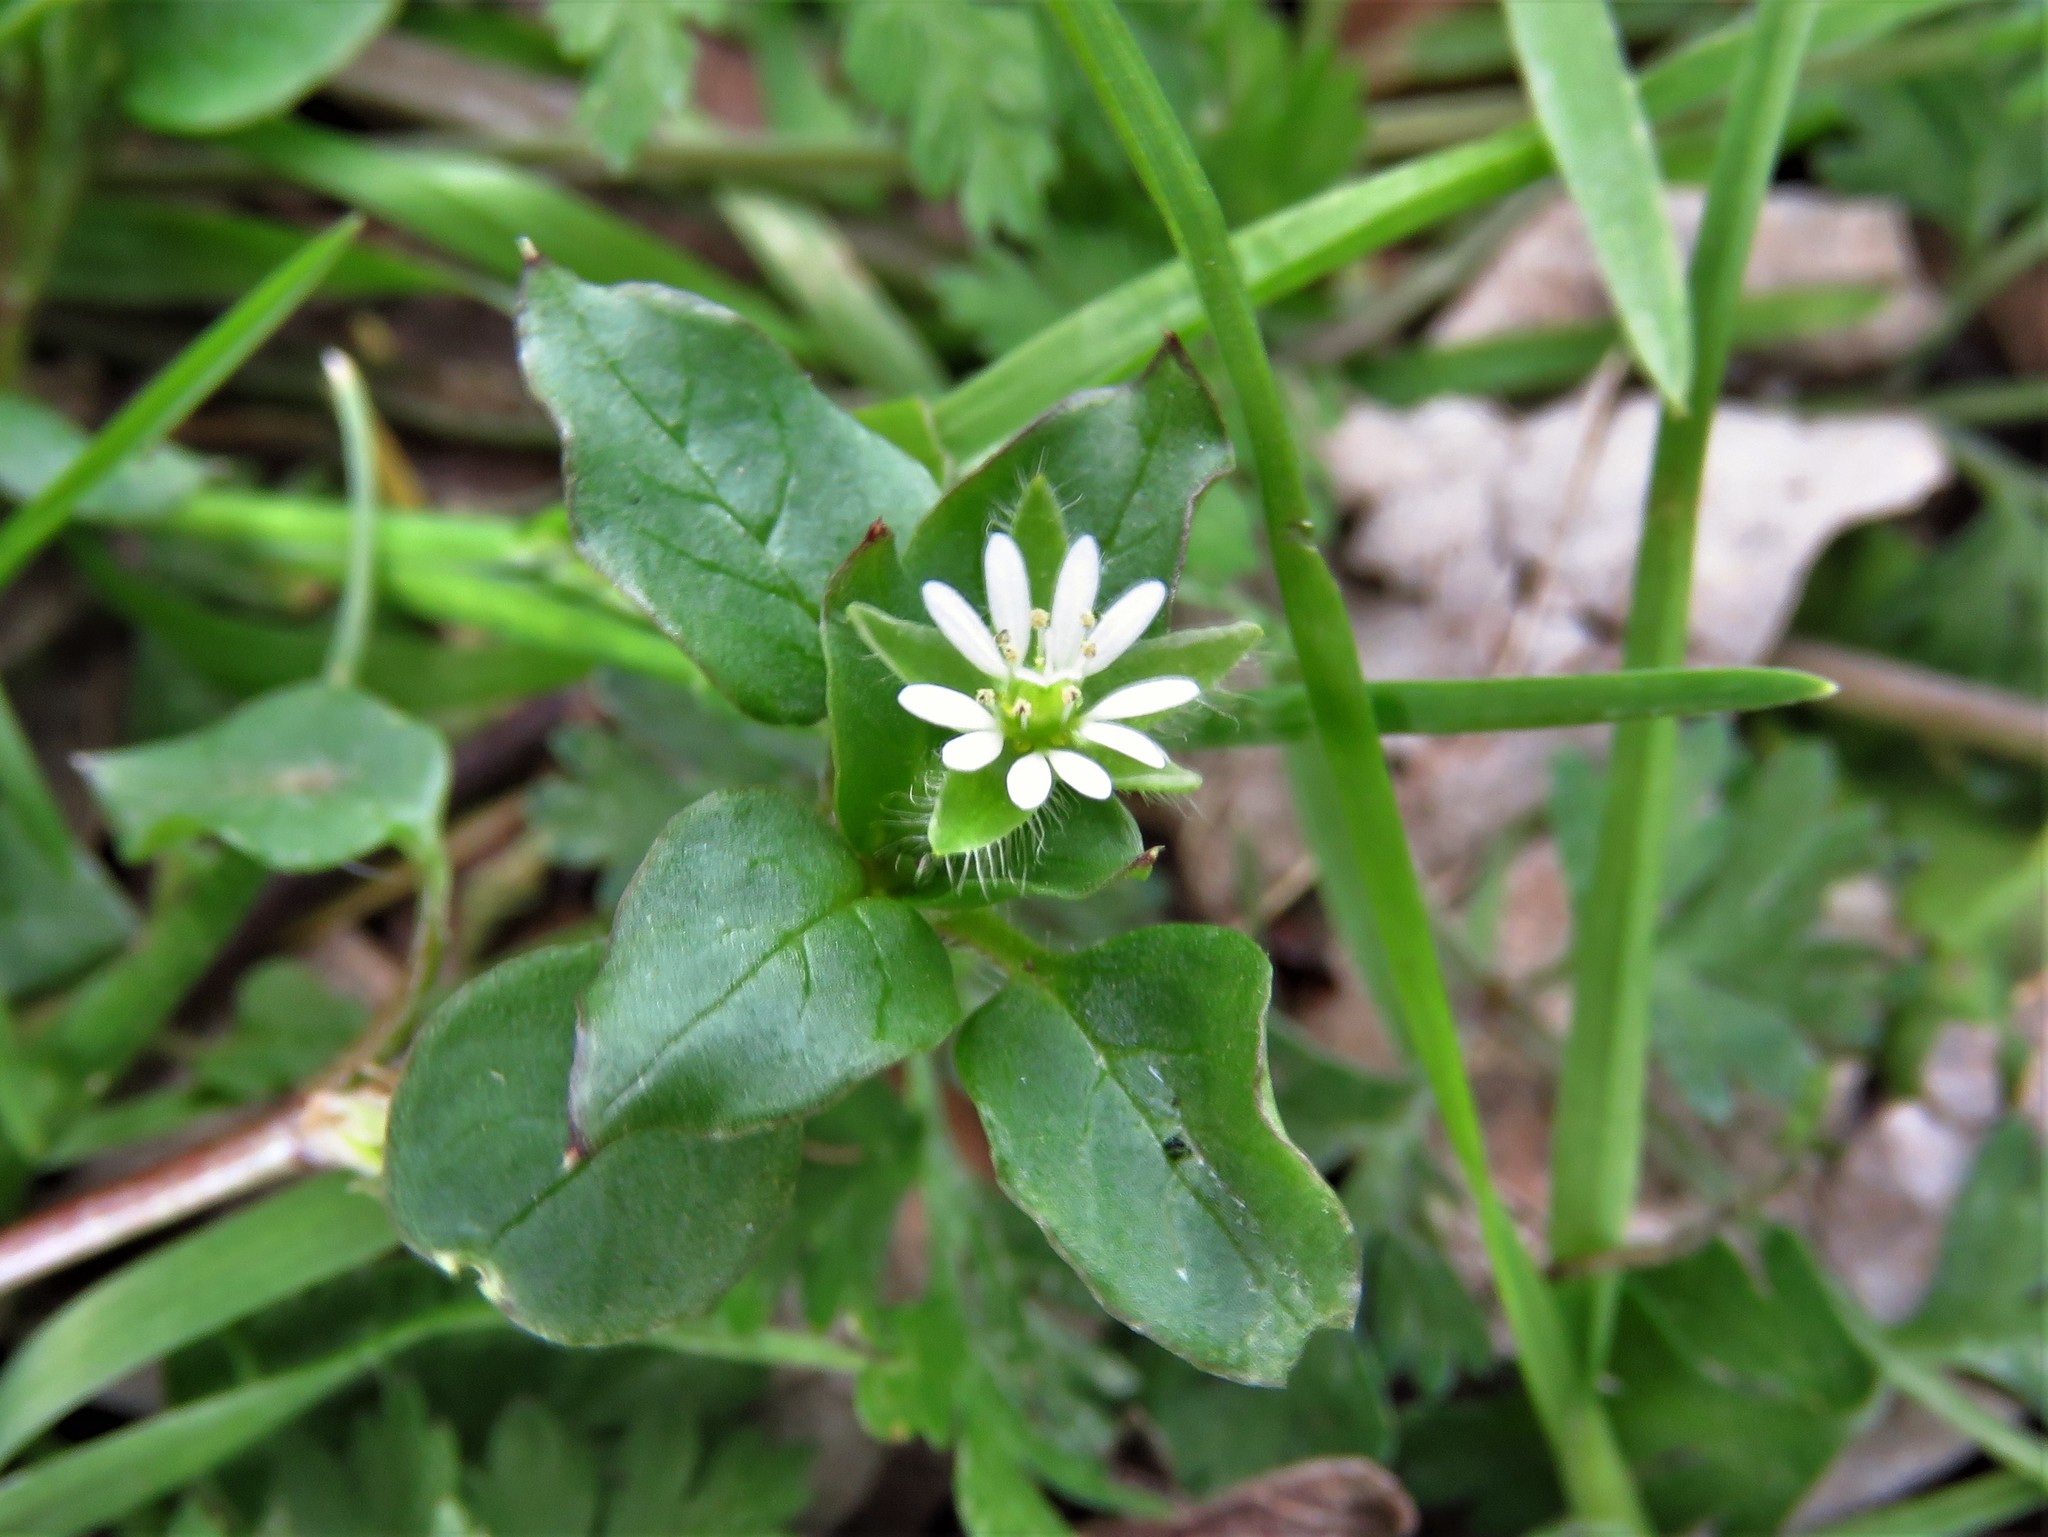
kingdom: Plantae
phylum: Tracheophyta
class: Magnoliopsida
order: Caryophyllales
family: Caryophyllaceae
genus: Stellaria
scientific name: Stellaria media
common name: Common chickweed
